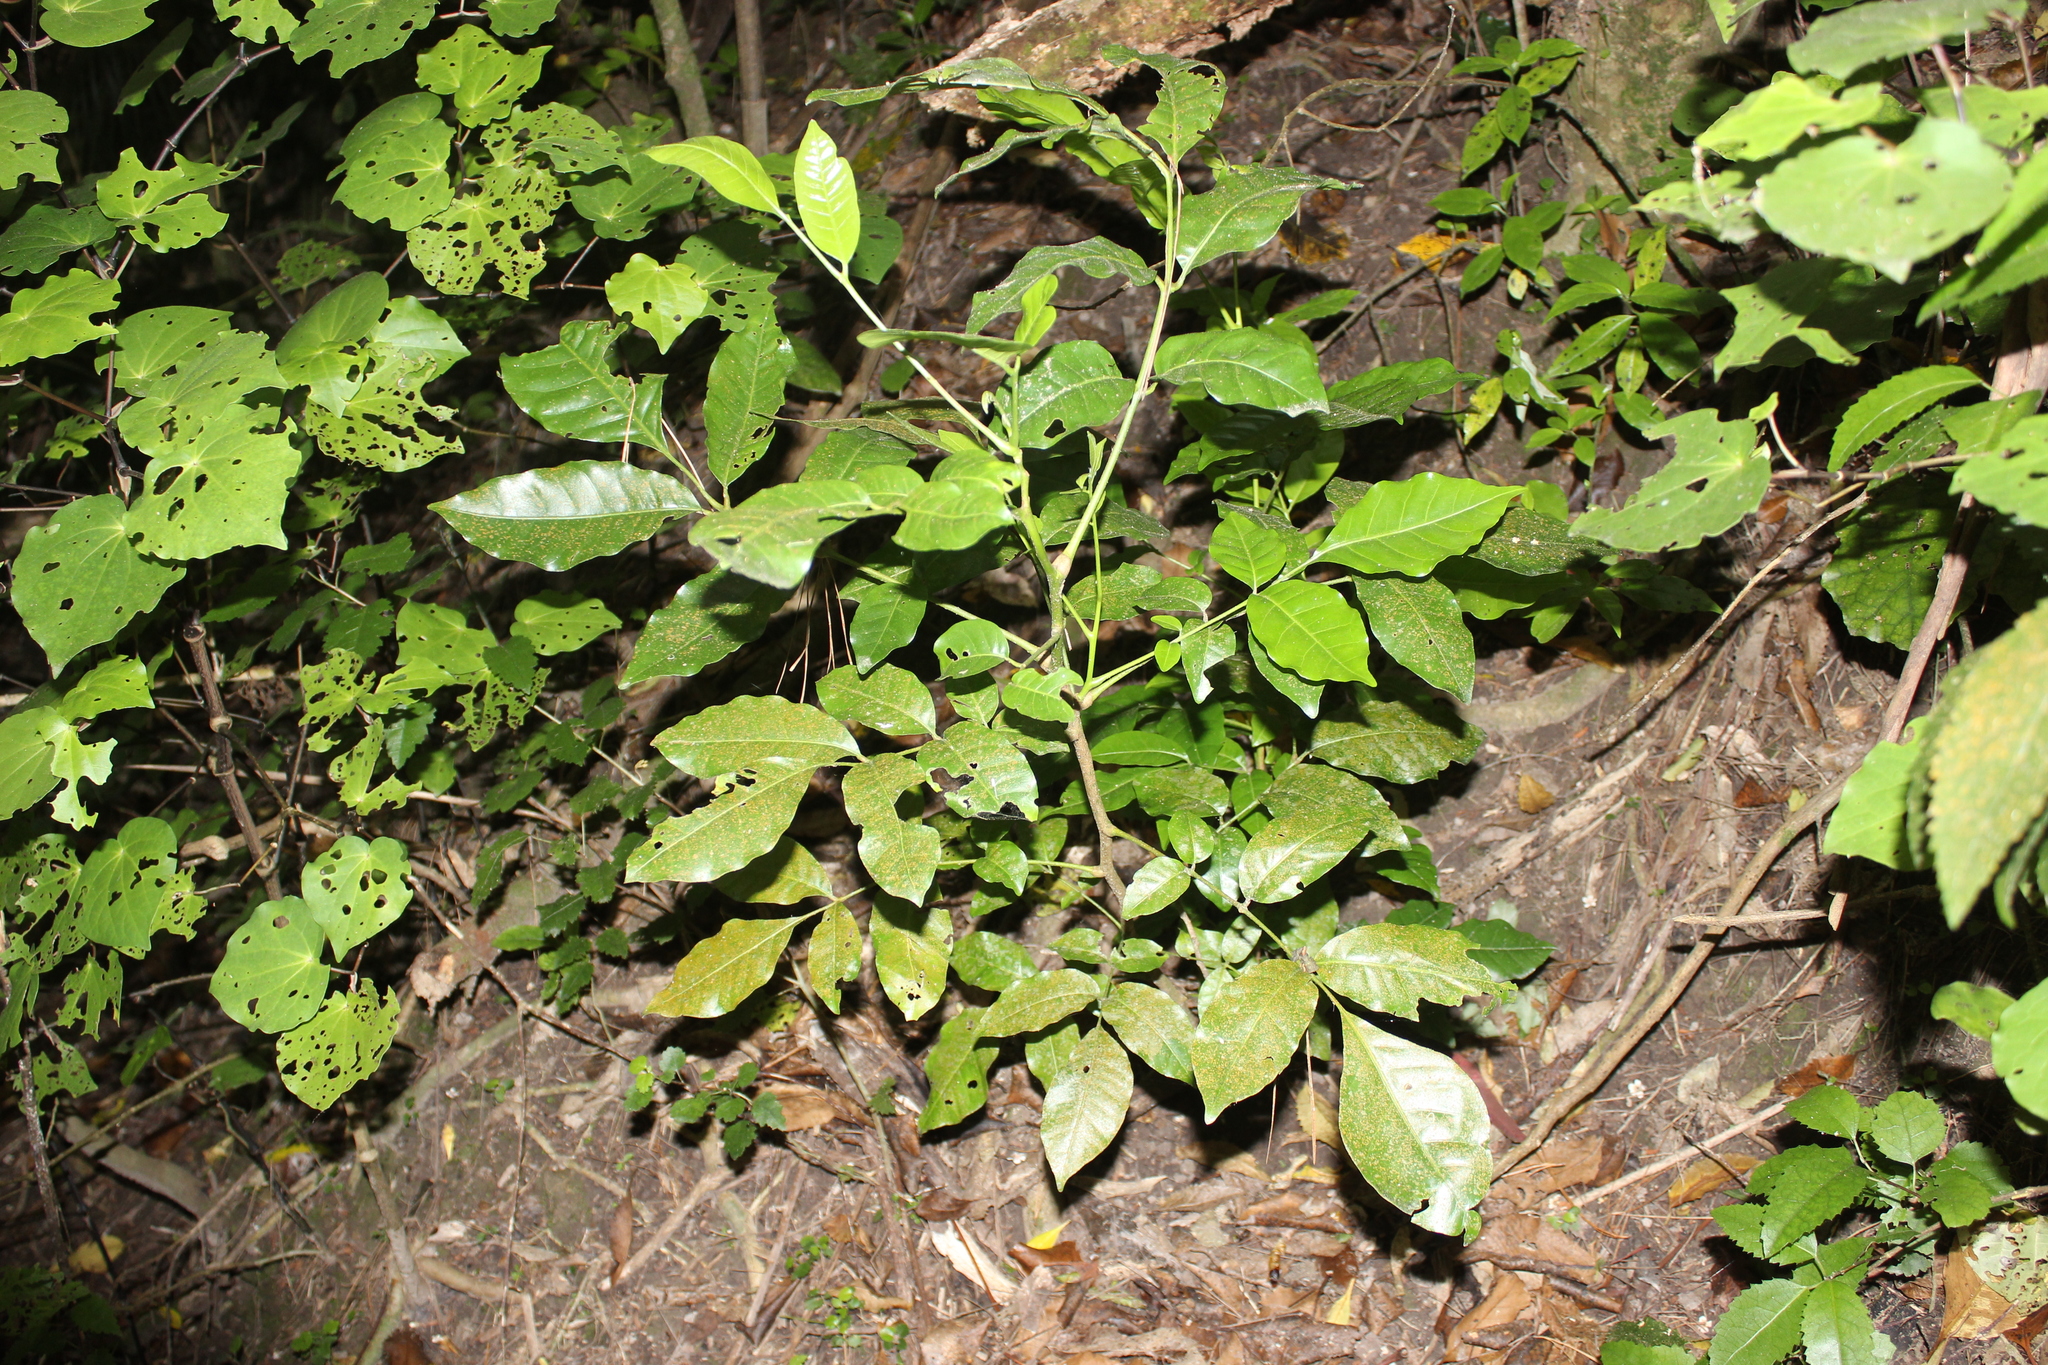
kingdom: Plantae
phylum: Tracheophyta
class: Magnoliopsida
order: Sapindales
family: Meliaceae
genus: Didymocheton
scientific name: Didymocheton spectabilis
